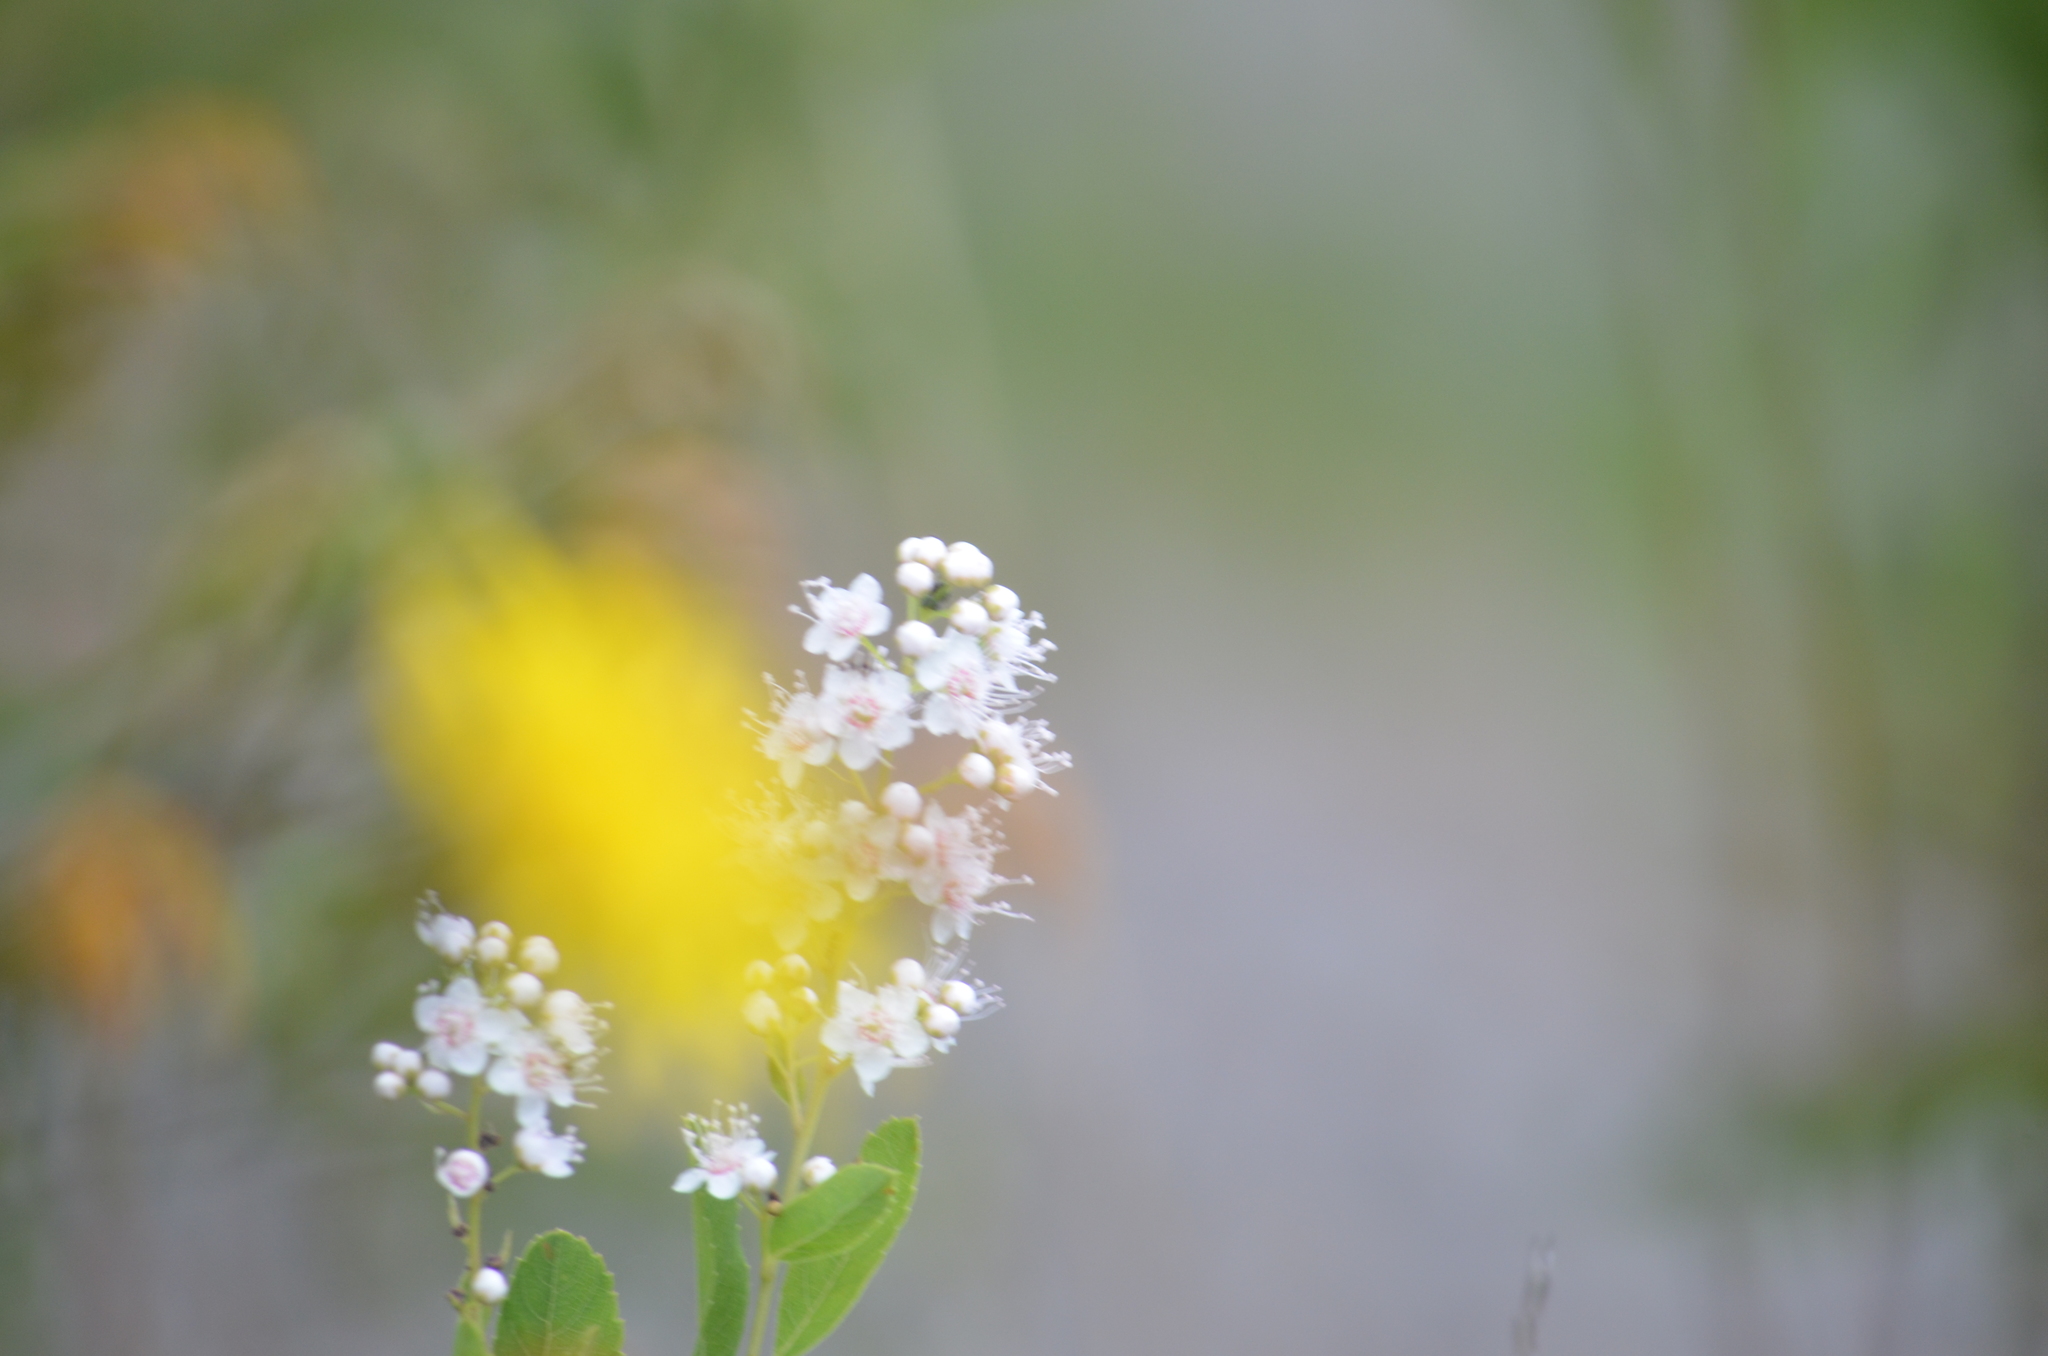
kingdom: Plantae
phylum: Tracheophyta
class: Magnoliopsida
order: Rosales
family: Rosaceae
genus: Spiraea
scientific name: Spiraea alba
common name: Pale bridewort
